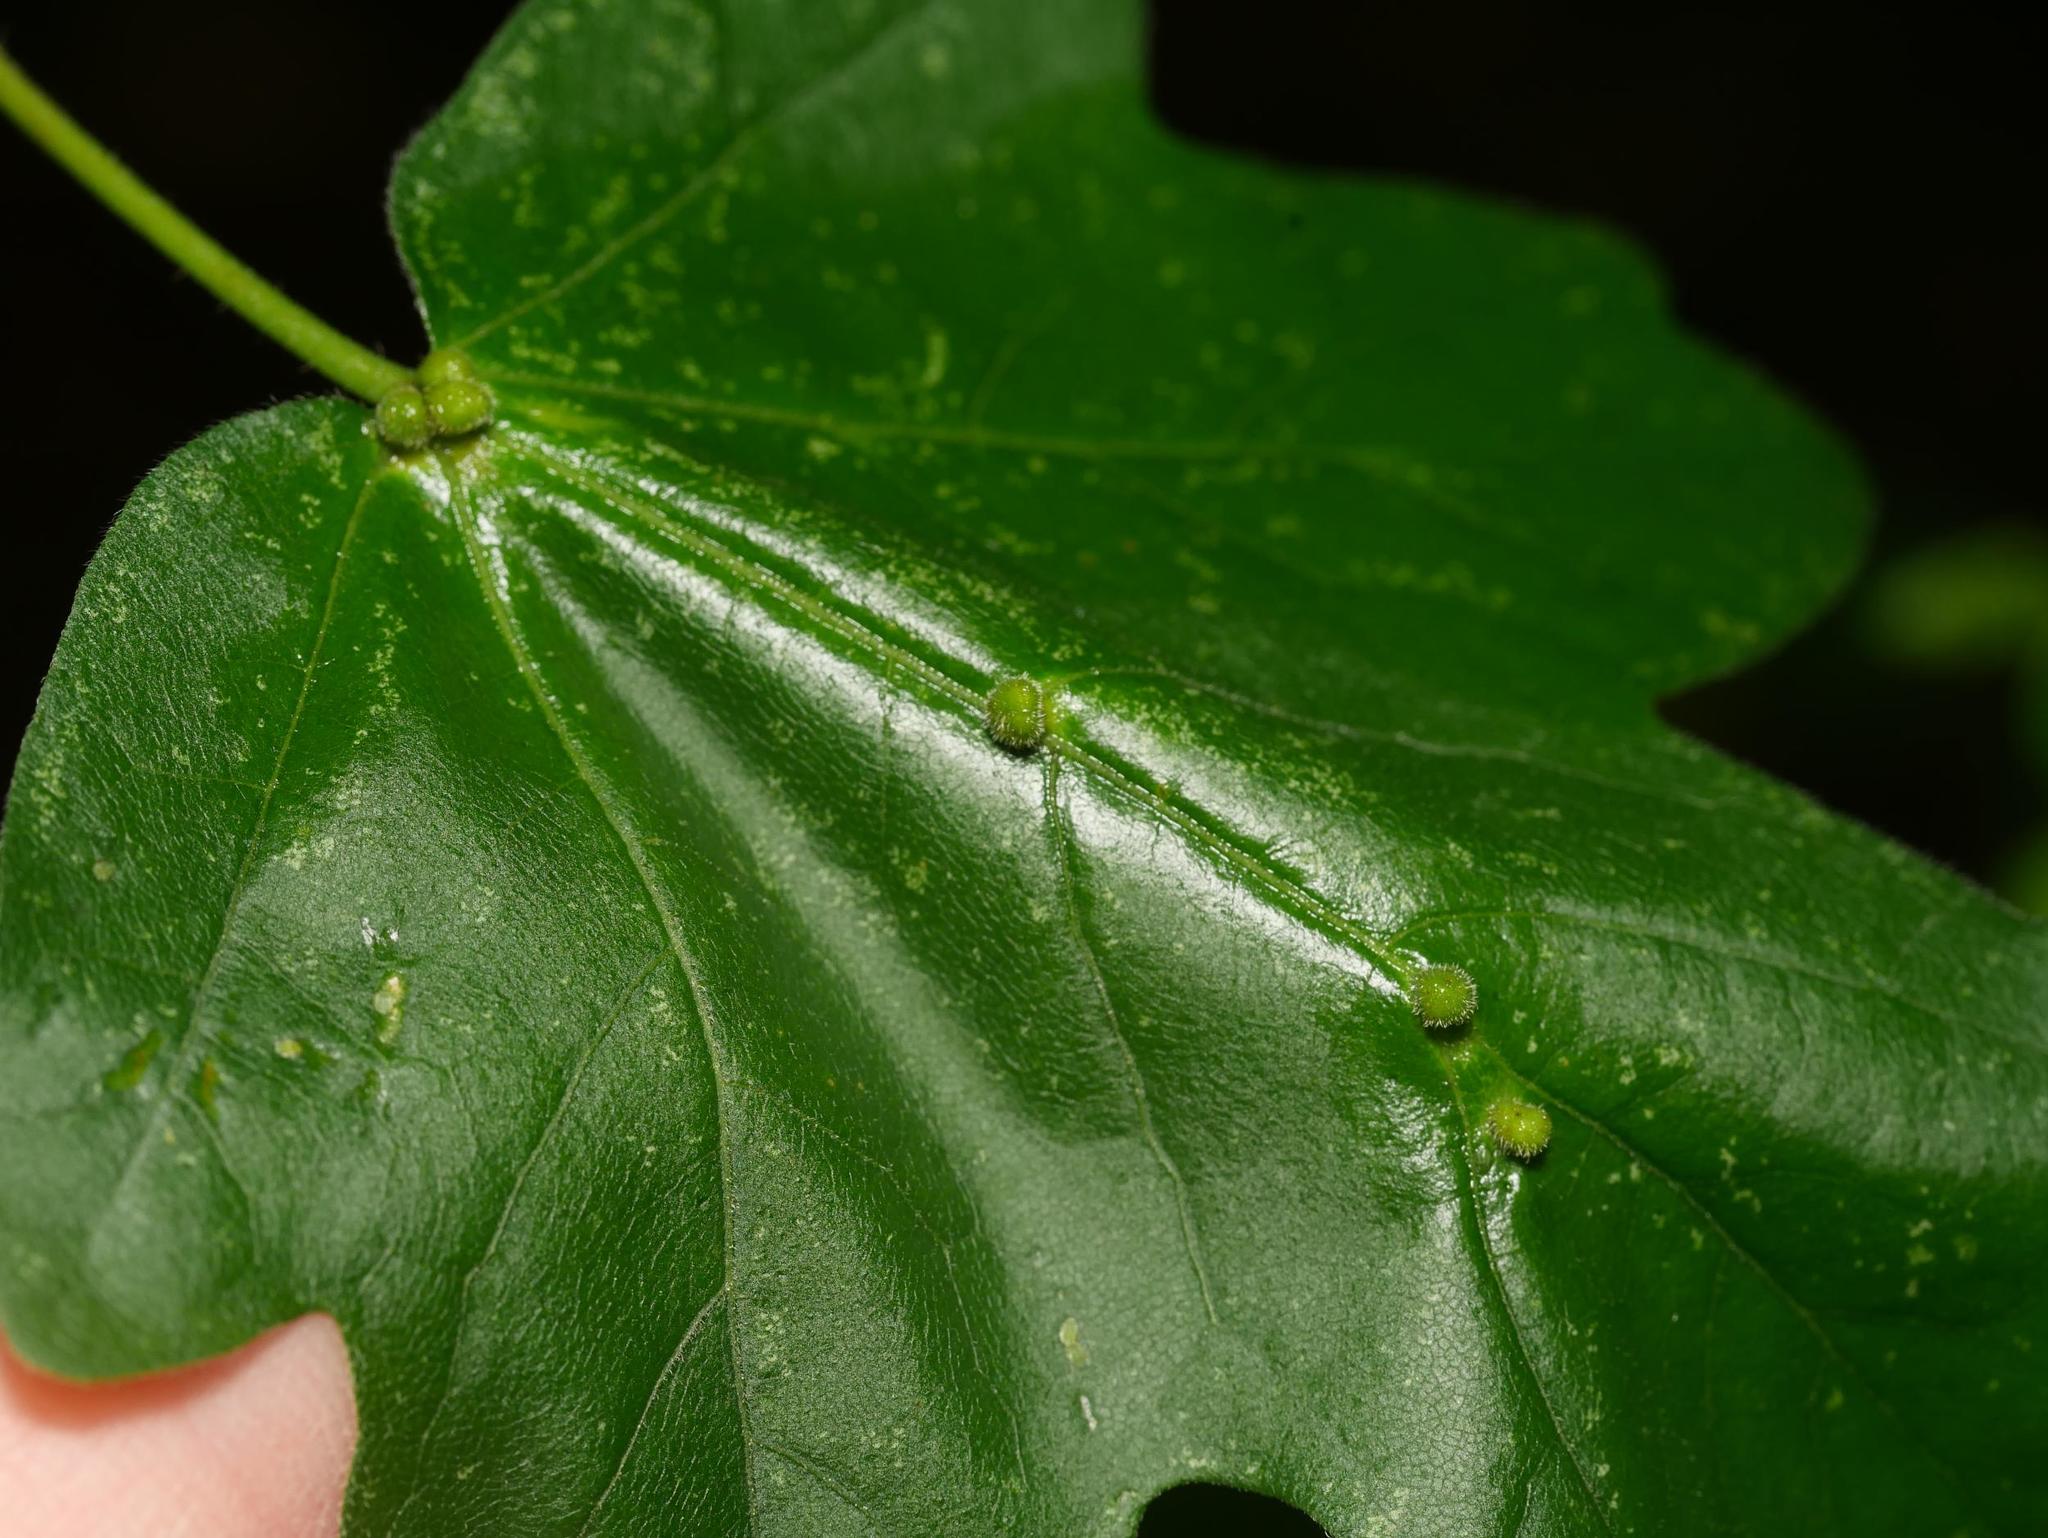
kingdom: Animalia
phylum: Arthropoda
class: Arachnida
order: Trombidiformes
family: Eriophyidae
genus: Aceria
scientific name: Aceria macrochelus
